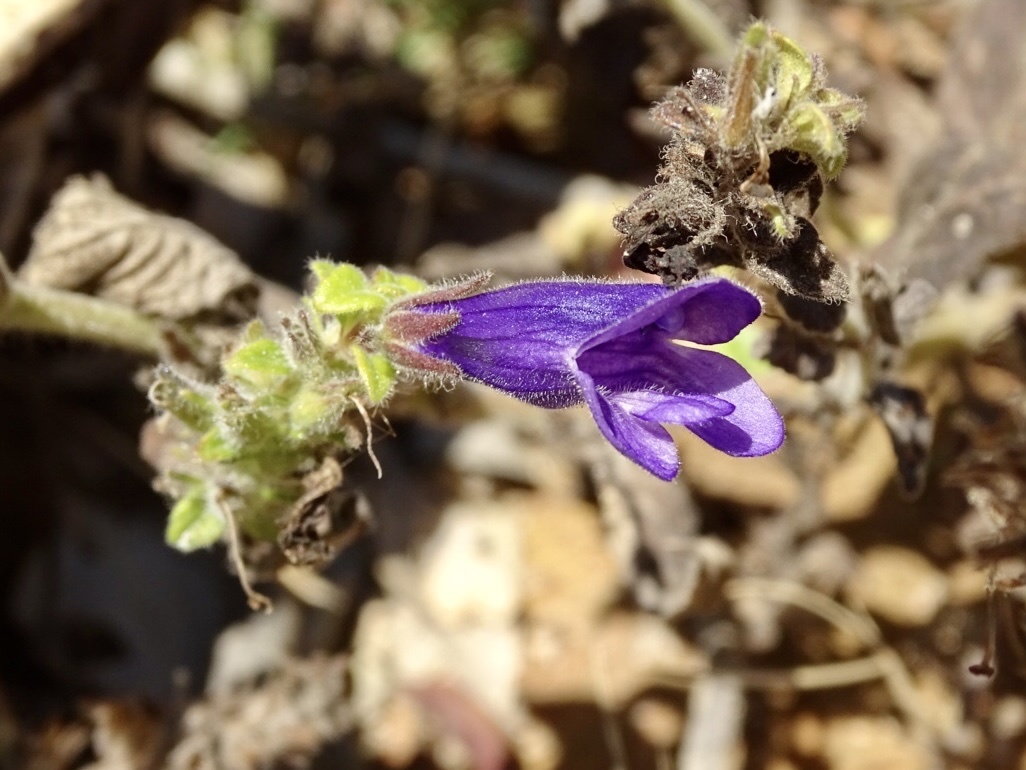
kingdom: Plantae
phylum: Tracheophyta
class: Magnoliopsida
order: Lamiales
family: Plantaginaceae
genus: Adenosma
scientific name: Adenosma glutinosa
